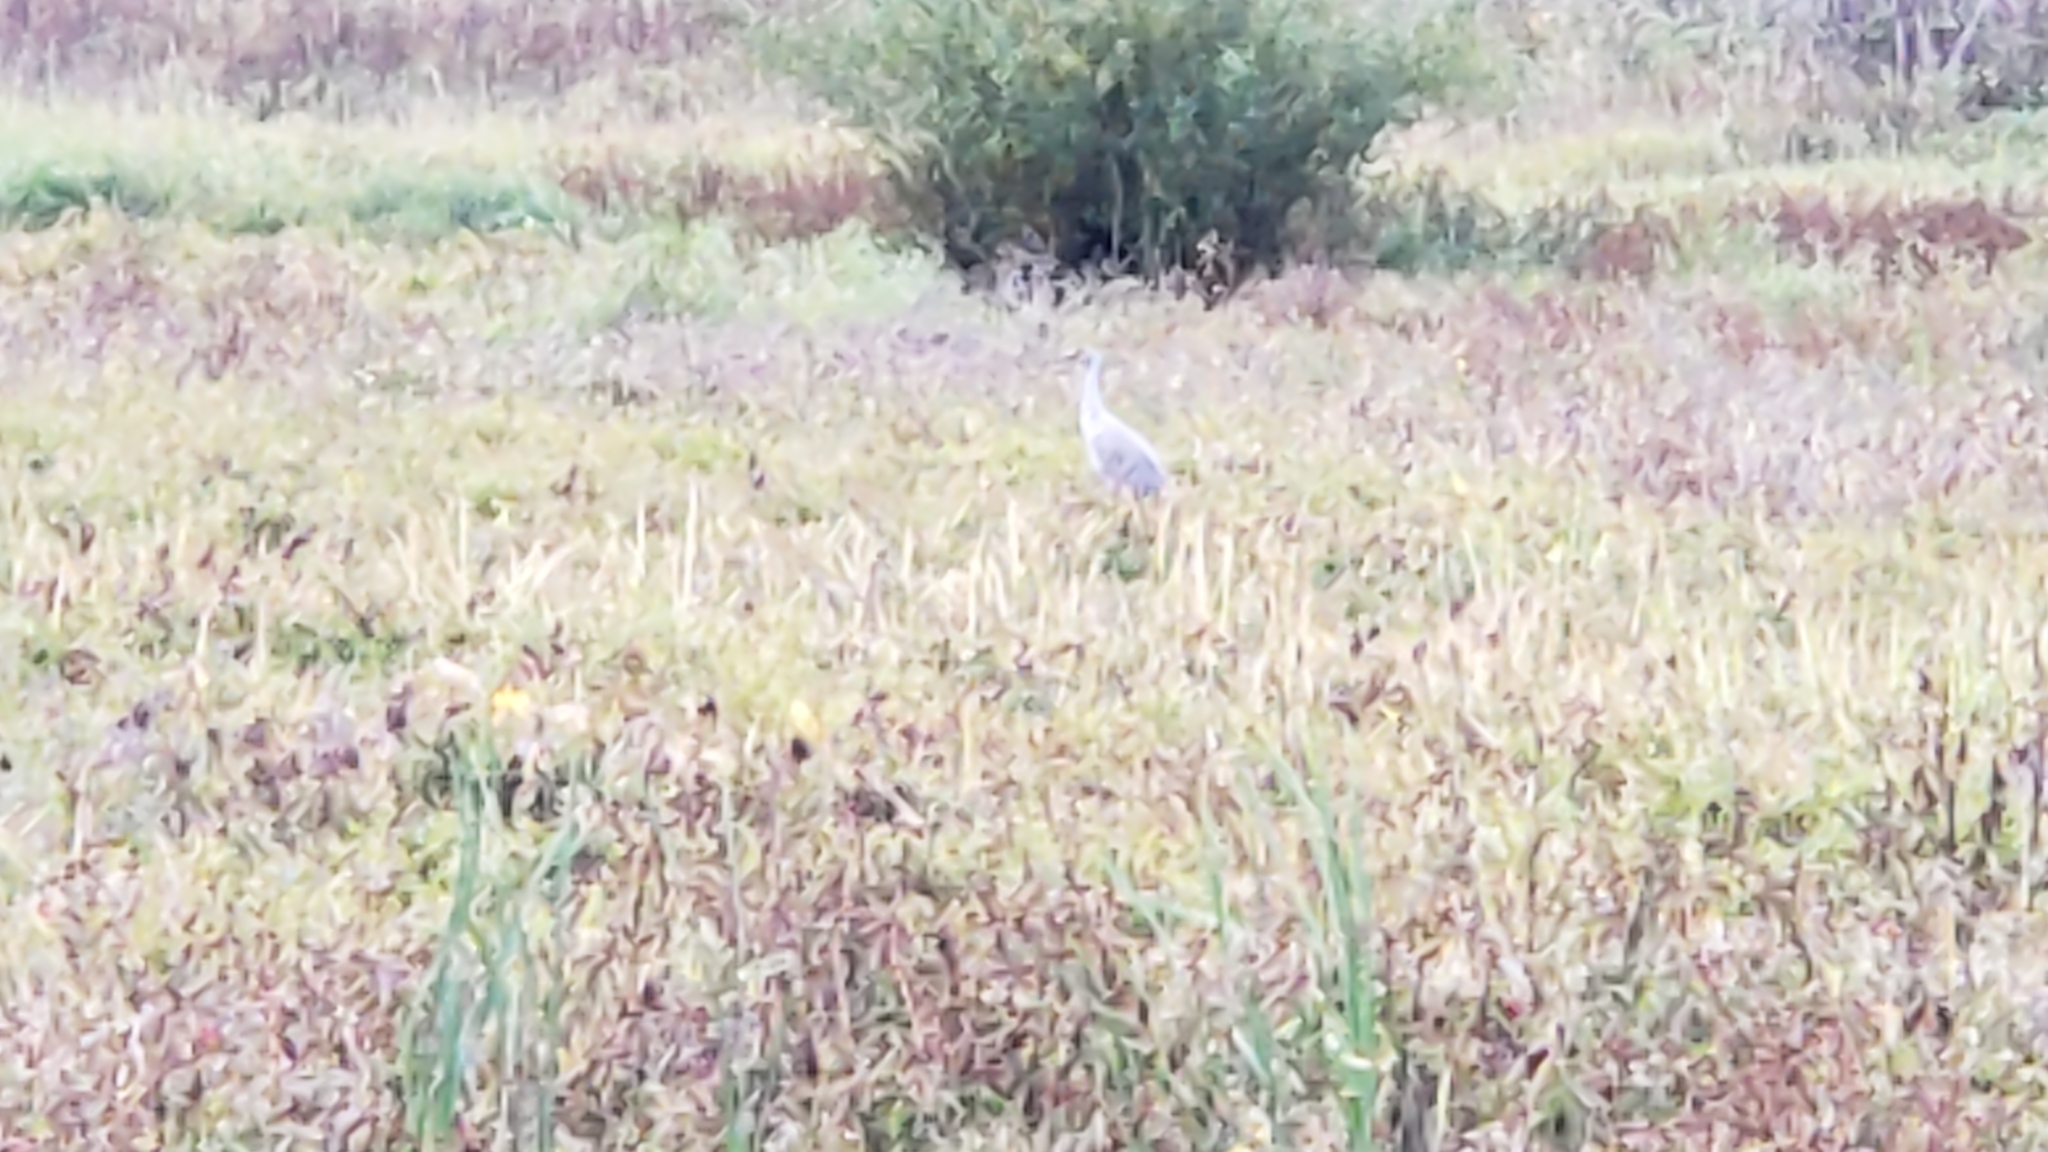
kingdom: Animalia
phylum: Chordata
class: Aves
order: Gruiformes
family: Gruidae
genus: Grus
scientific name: Grus canadensis
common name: Sandhill crane
